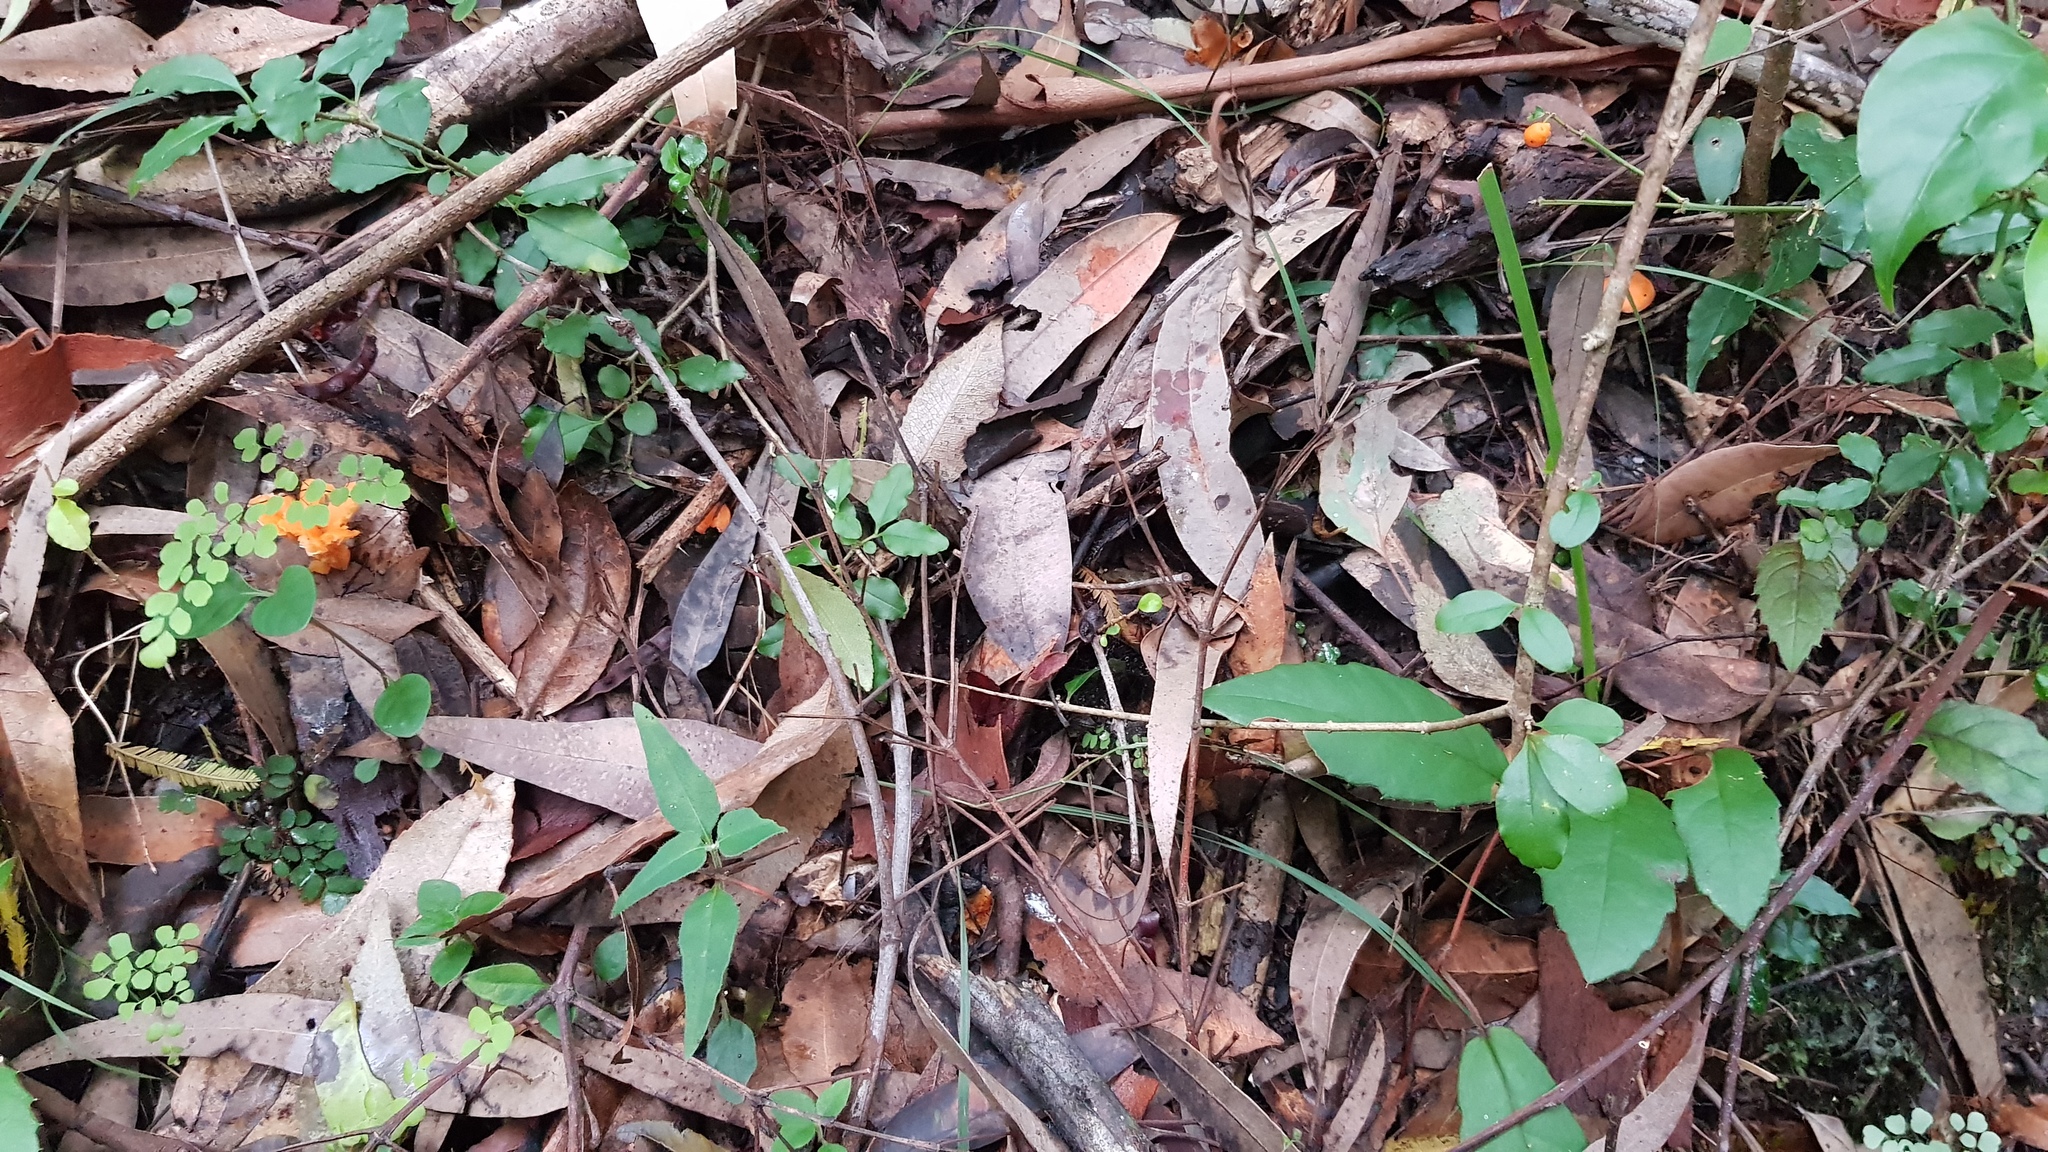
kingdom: Fungi
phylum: Basidiomycota
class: Agaricomycetes
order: Cantharellales
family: Hydnaceae
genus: Cantharellus
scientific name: Cantharellus
